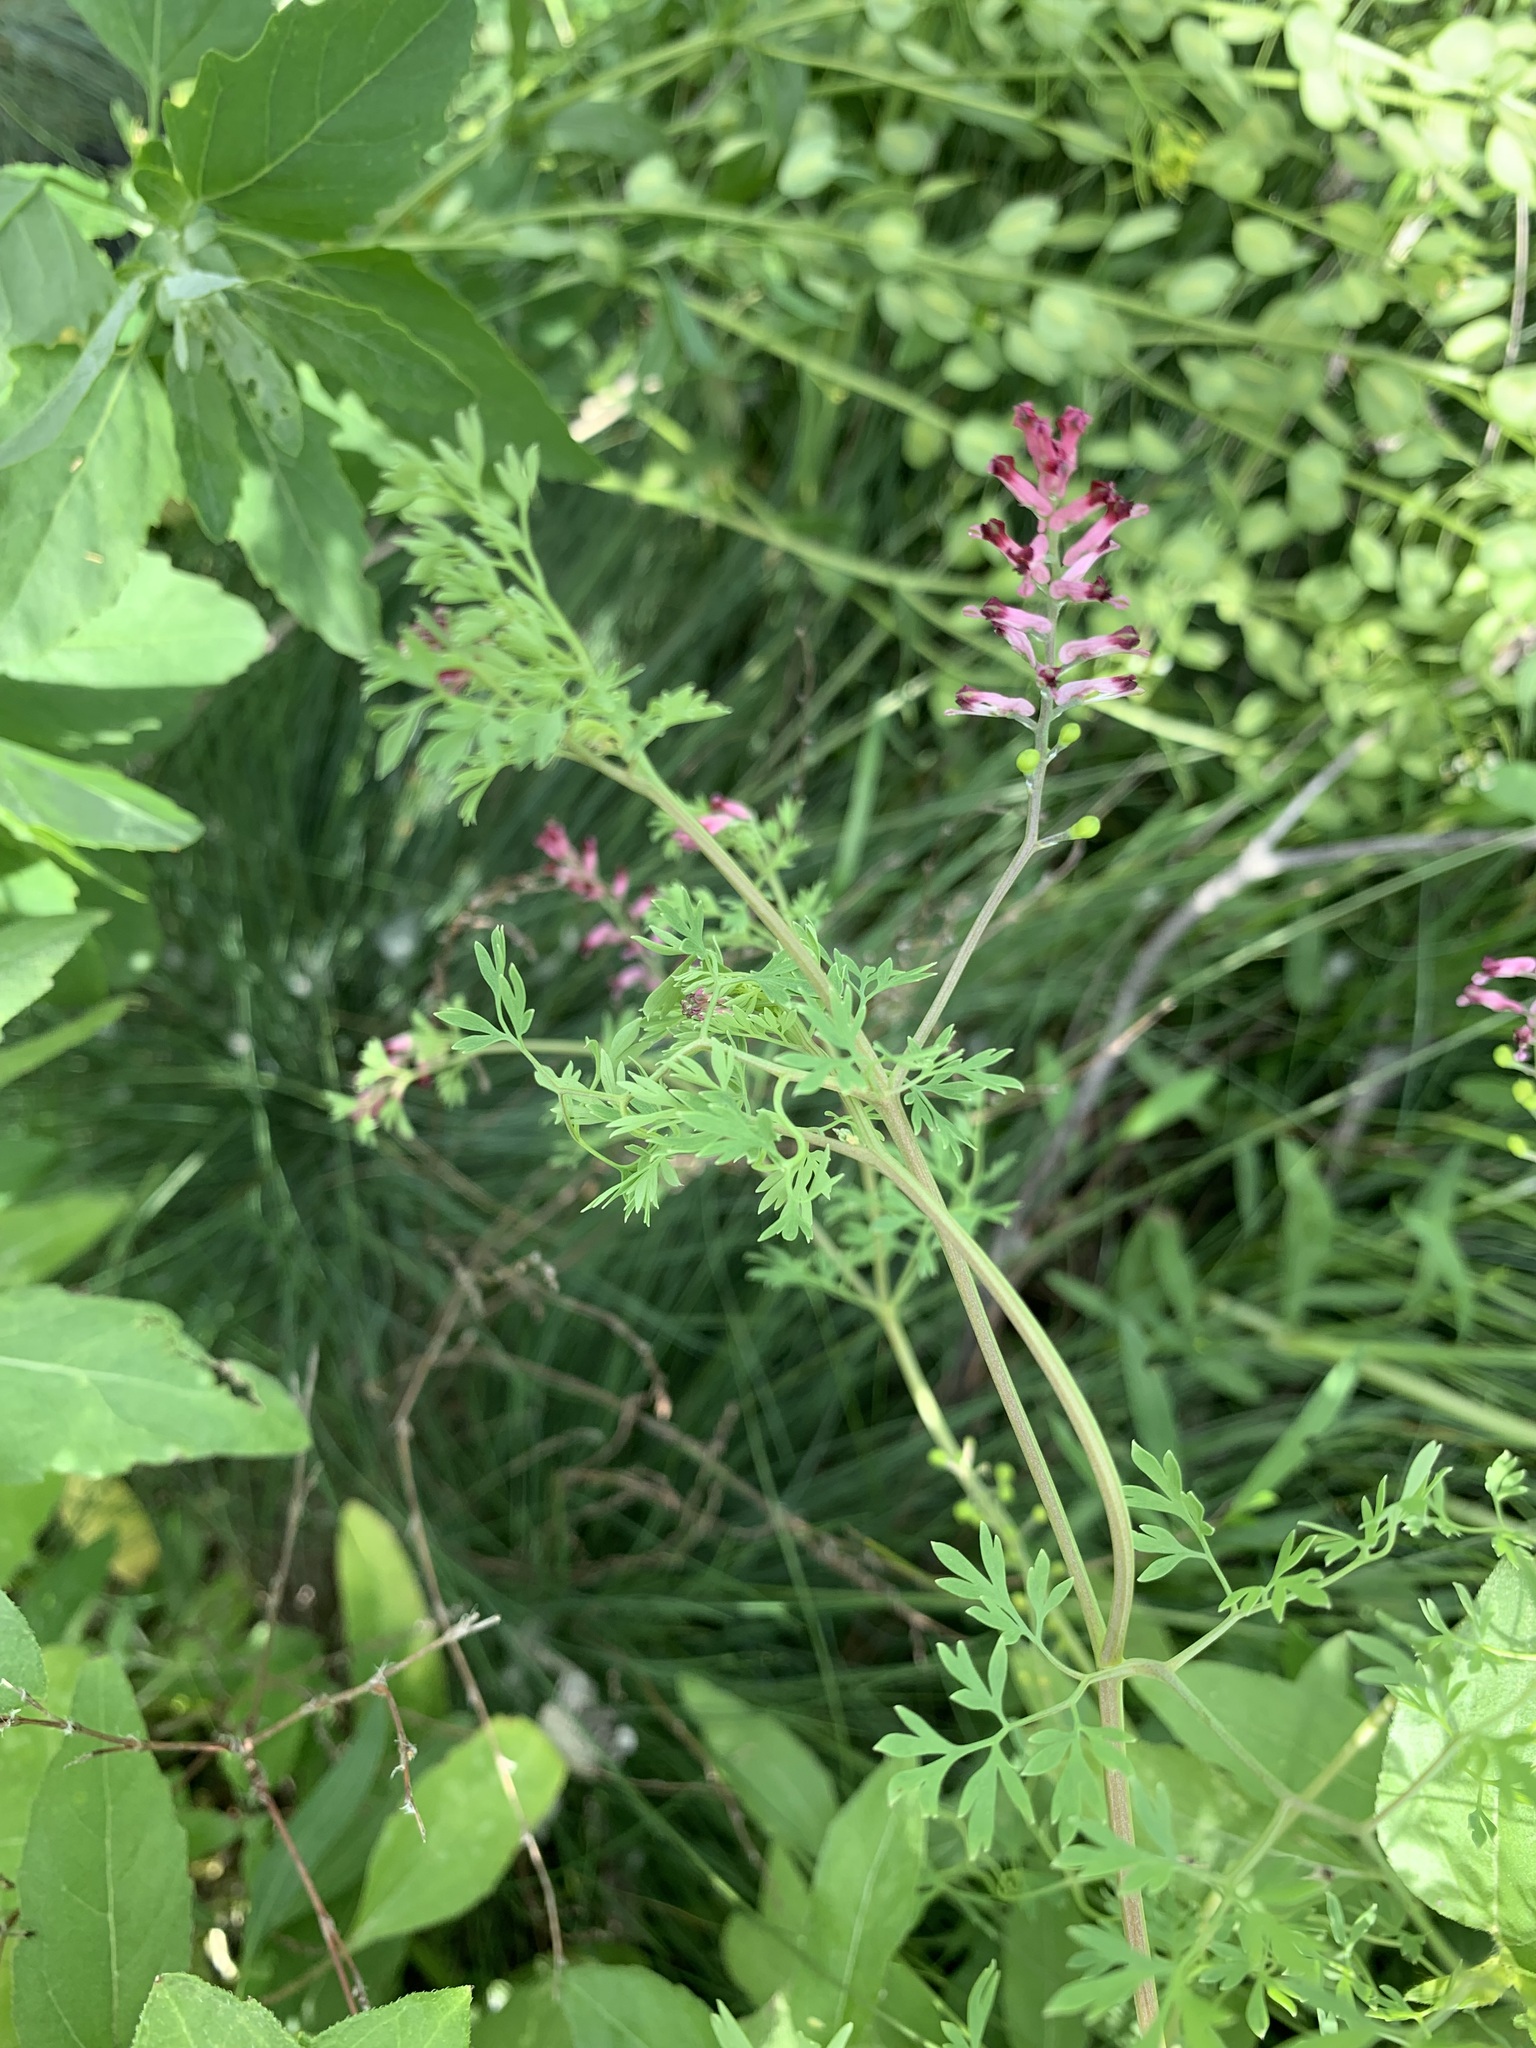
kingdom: Plantae
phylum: Tracheophyta
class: Magnoliopsida
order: Ranunculales
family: Papaveraceae
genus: Fumaria
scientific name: Fumaria schleicheri
